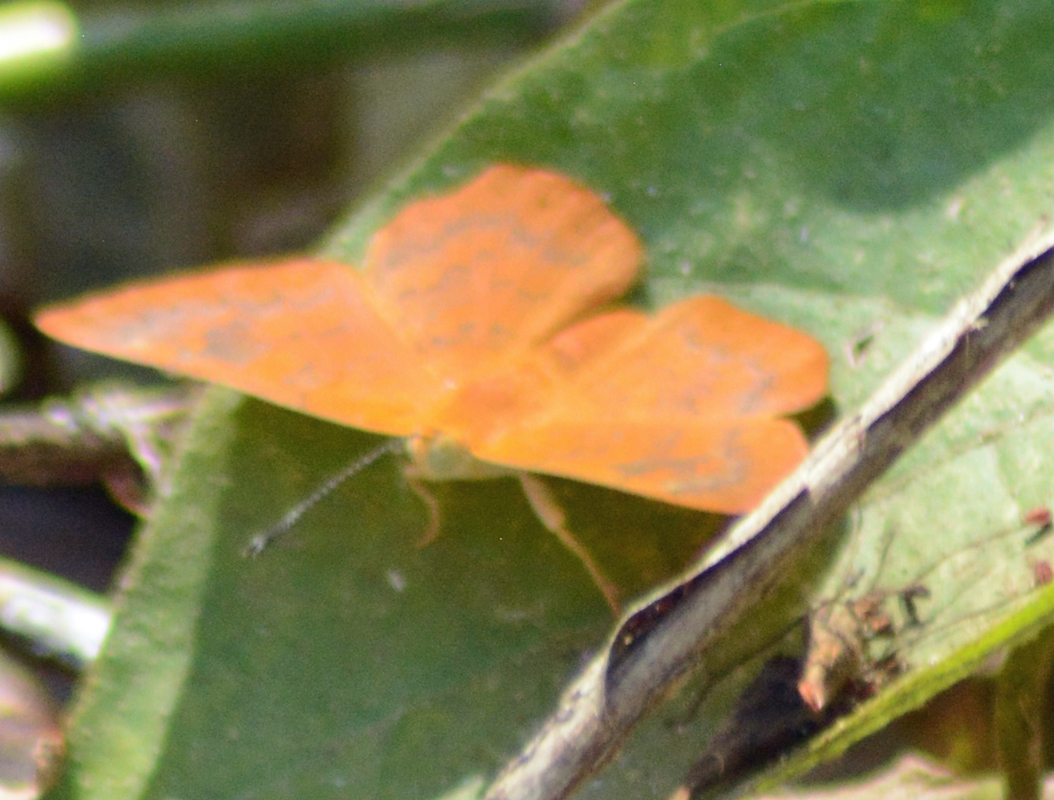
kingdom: Animalia
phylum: Arthropoda
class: Insecta
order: Lepidoptera
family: Riodinidae
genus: Curvie
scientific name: Curvie emesia
